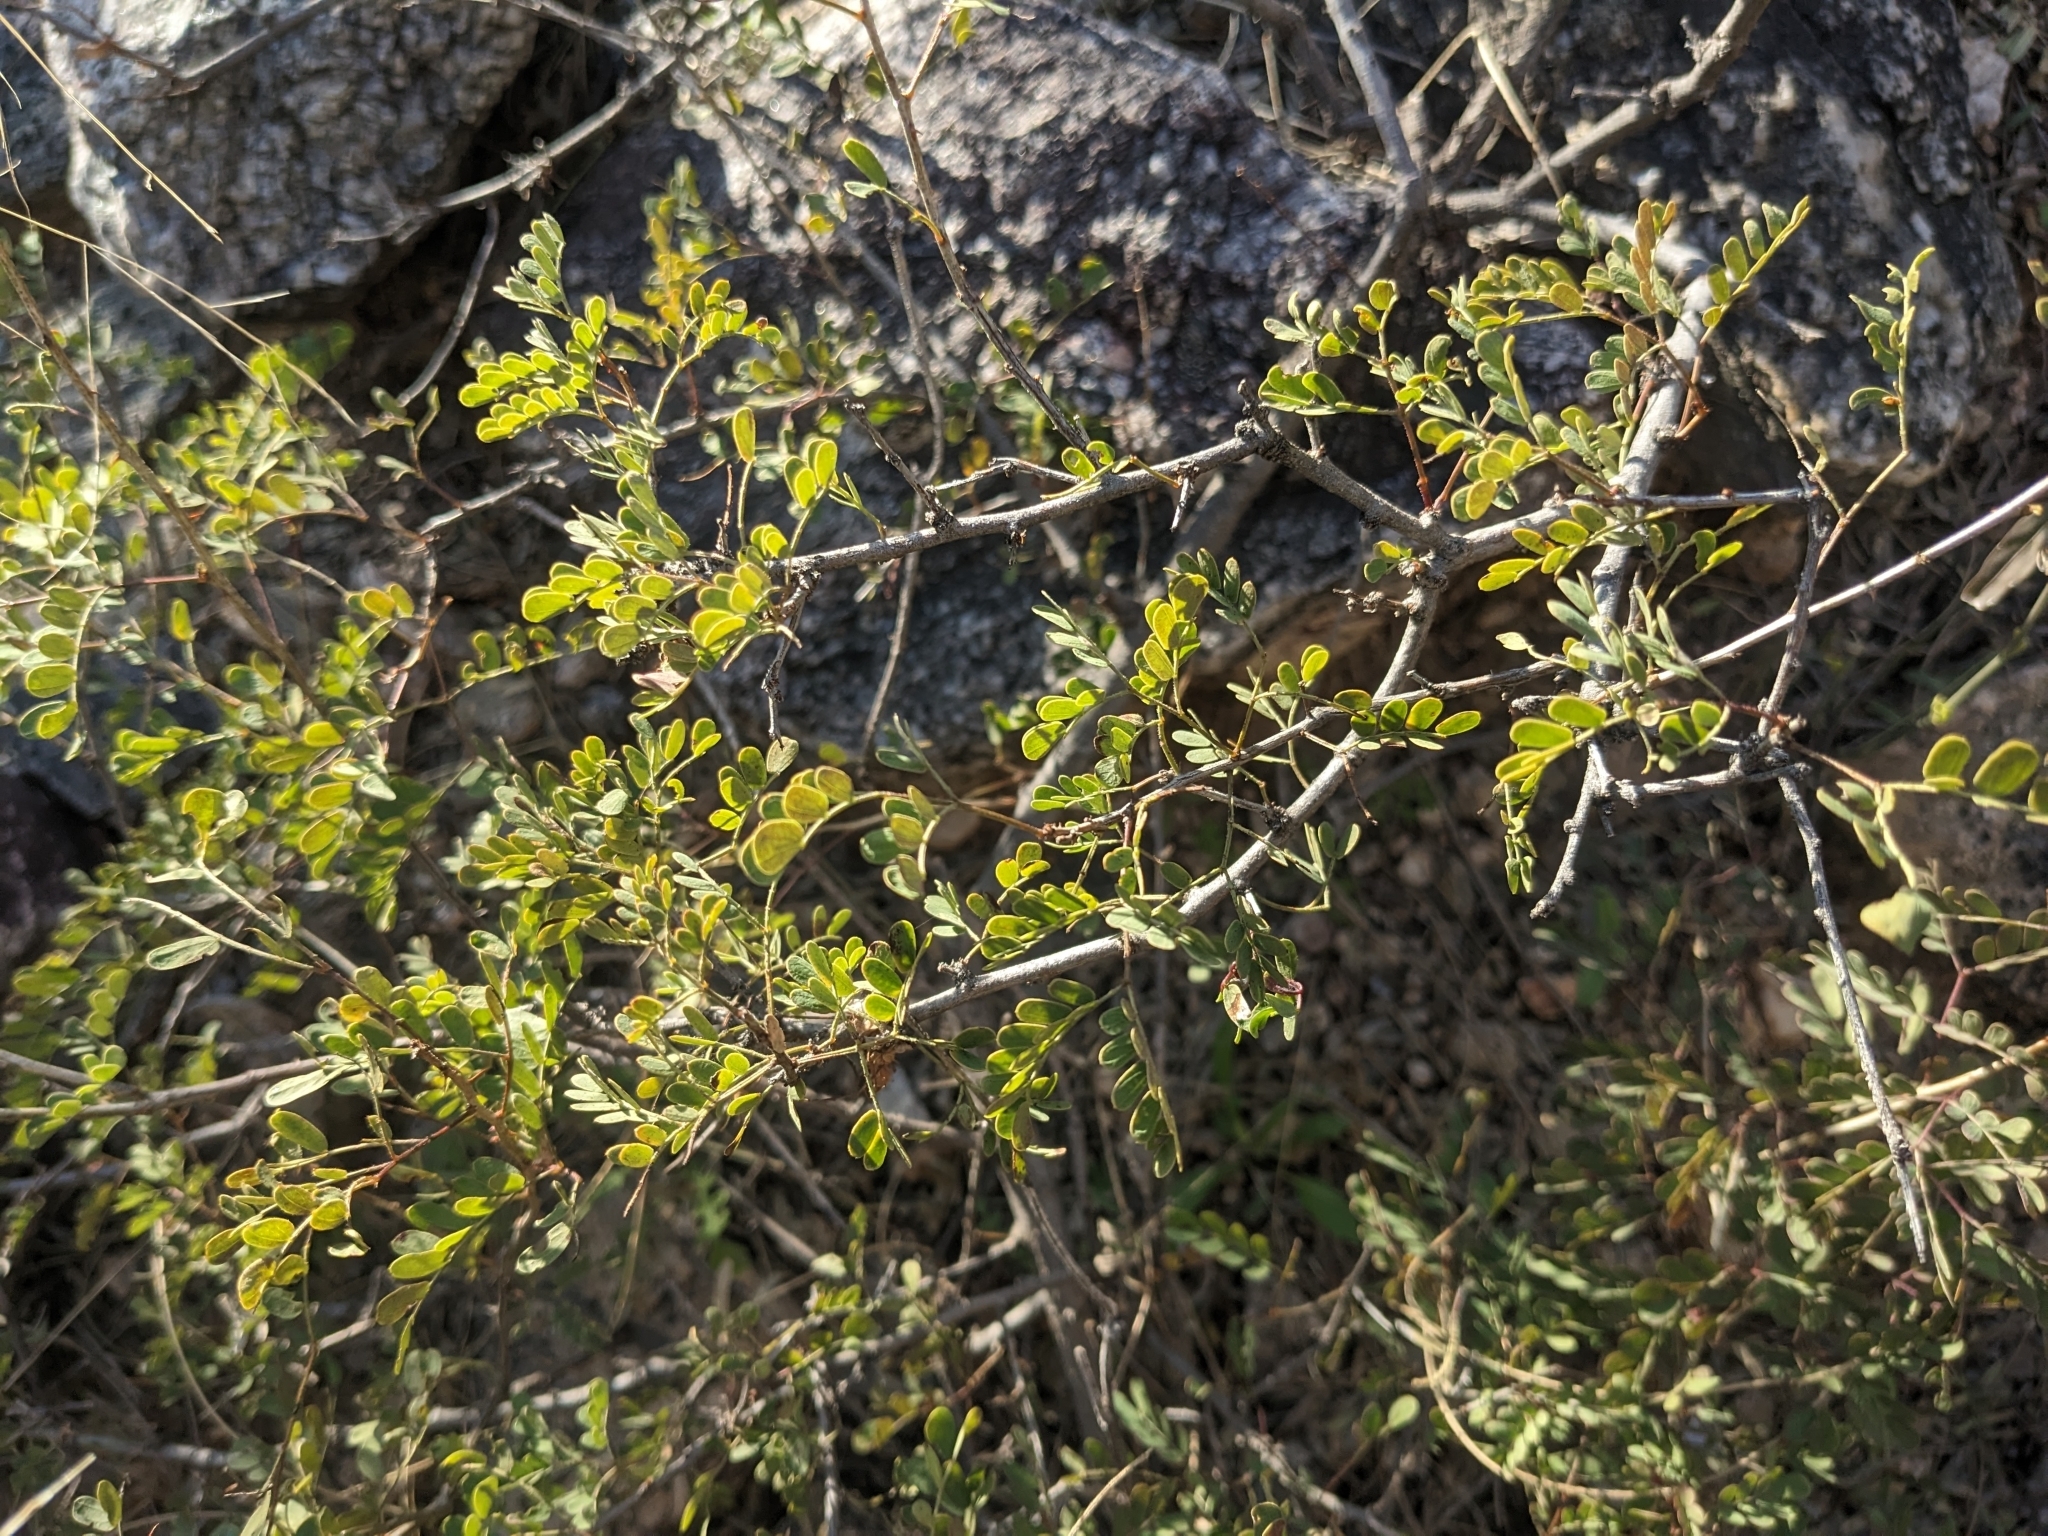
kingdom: Plantae
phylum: Tracheophyta
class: Magnoliopsida
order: Fabales
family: Fabaceae
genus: Senegalia
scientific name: Senegalia greggii
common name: Texas-mimosa
